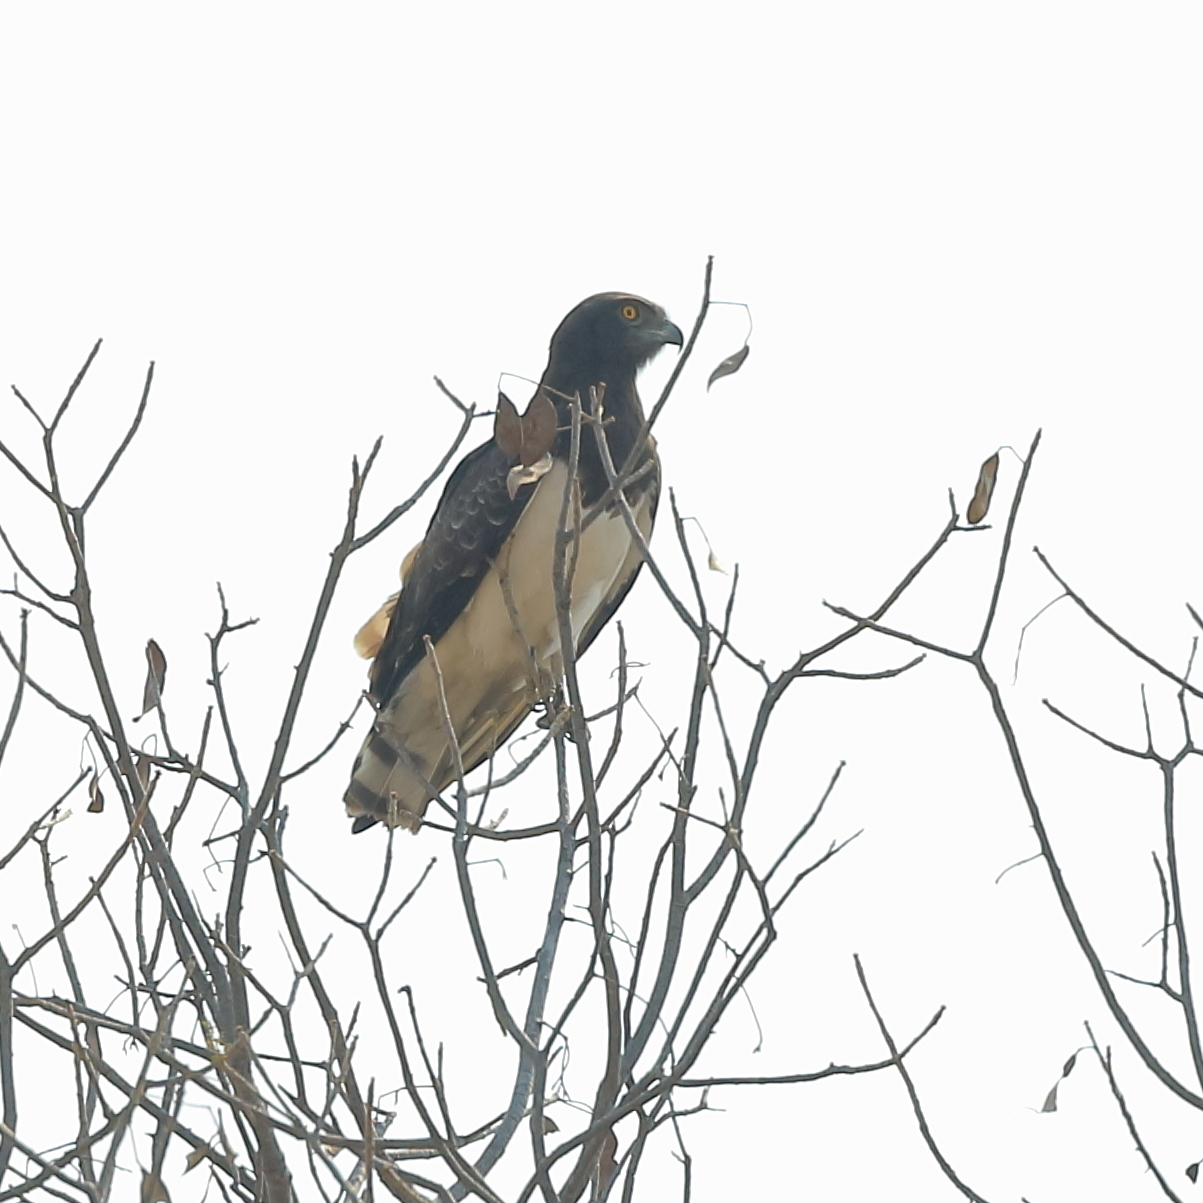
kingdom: Animalia
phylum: Chordata
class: Aves
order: Accipitriformes
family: Accipitridae
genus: Circaetus
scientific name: Circaetus pectoralis
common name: Black-chested snake eagle
